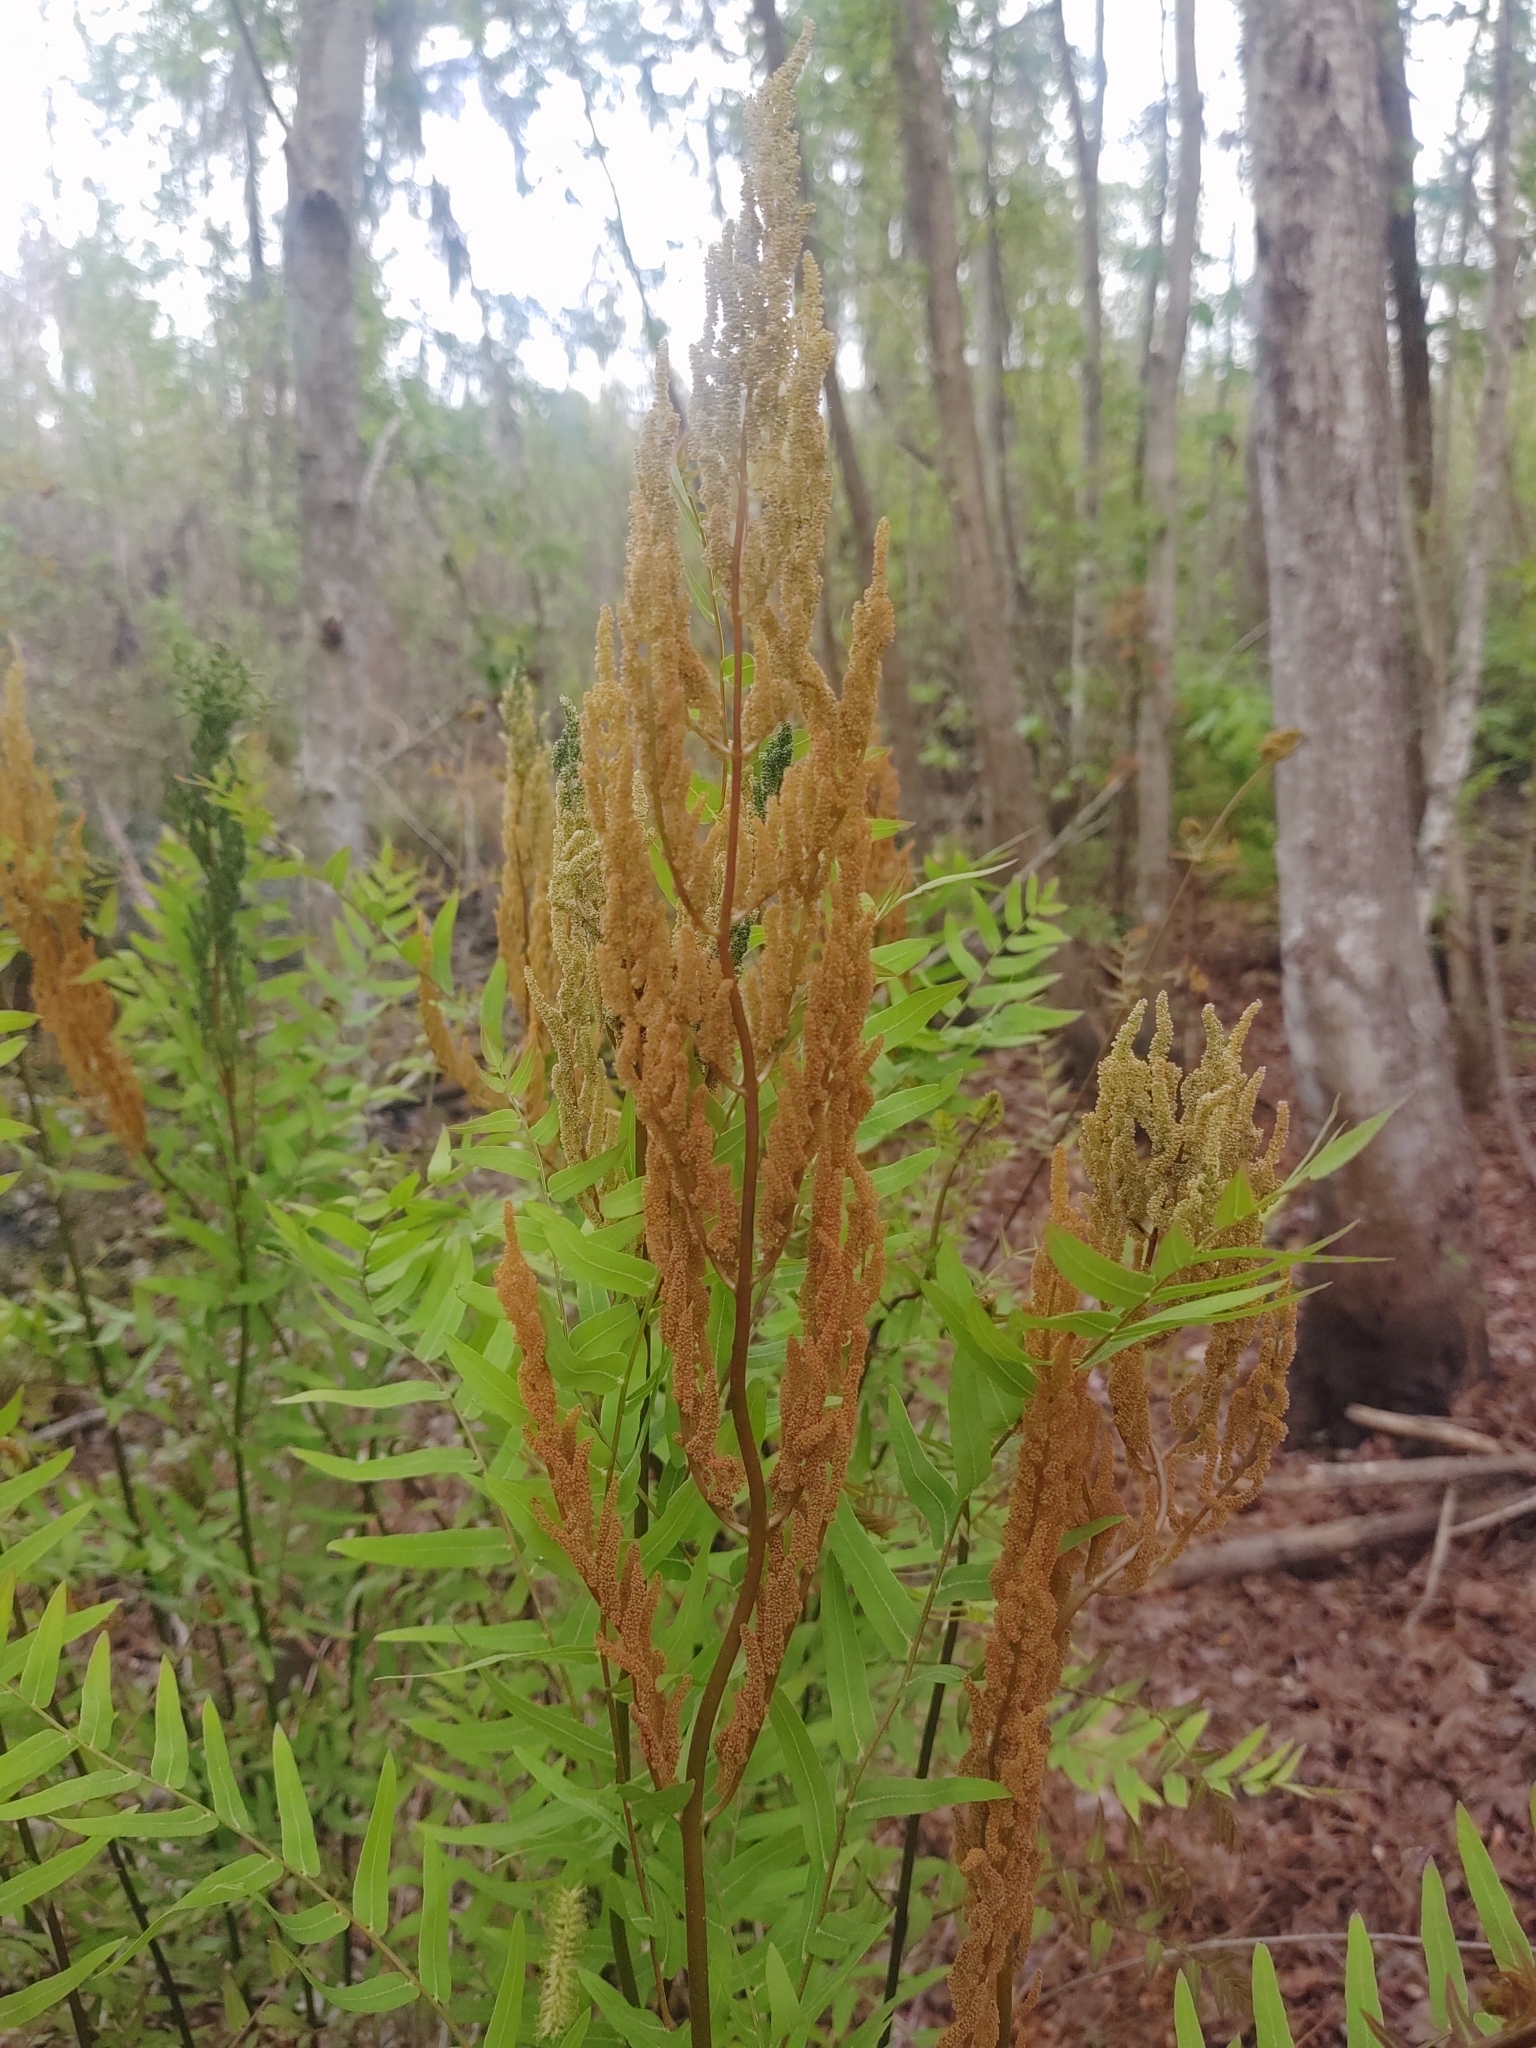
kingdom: Plantae
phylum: Tracheophyta
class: Polypodiopsida
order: Osmundales
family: Osmundaceae
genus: Osmunda
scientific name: Osmunda spectabilis
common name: American royal fern
